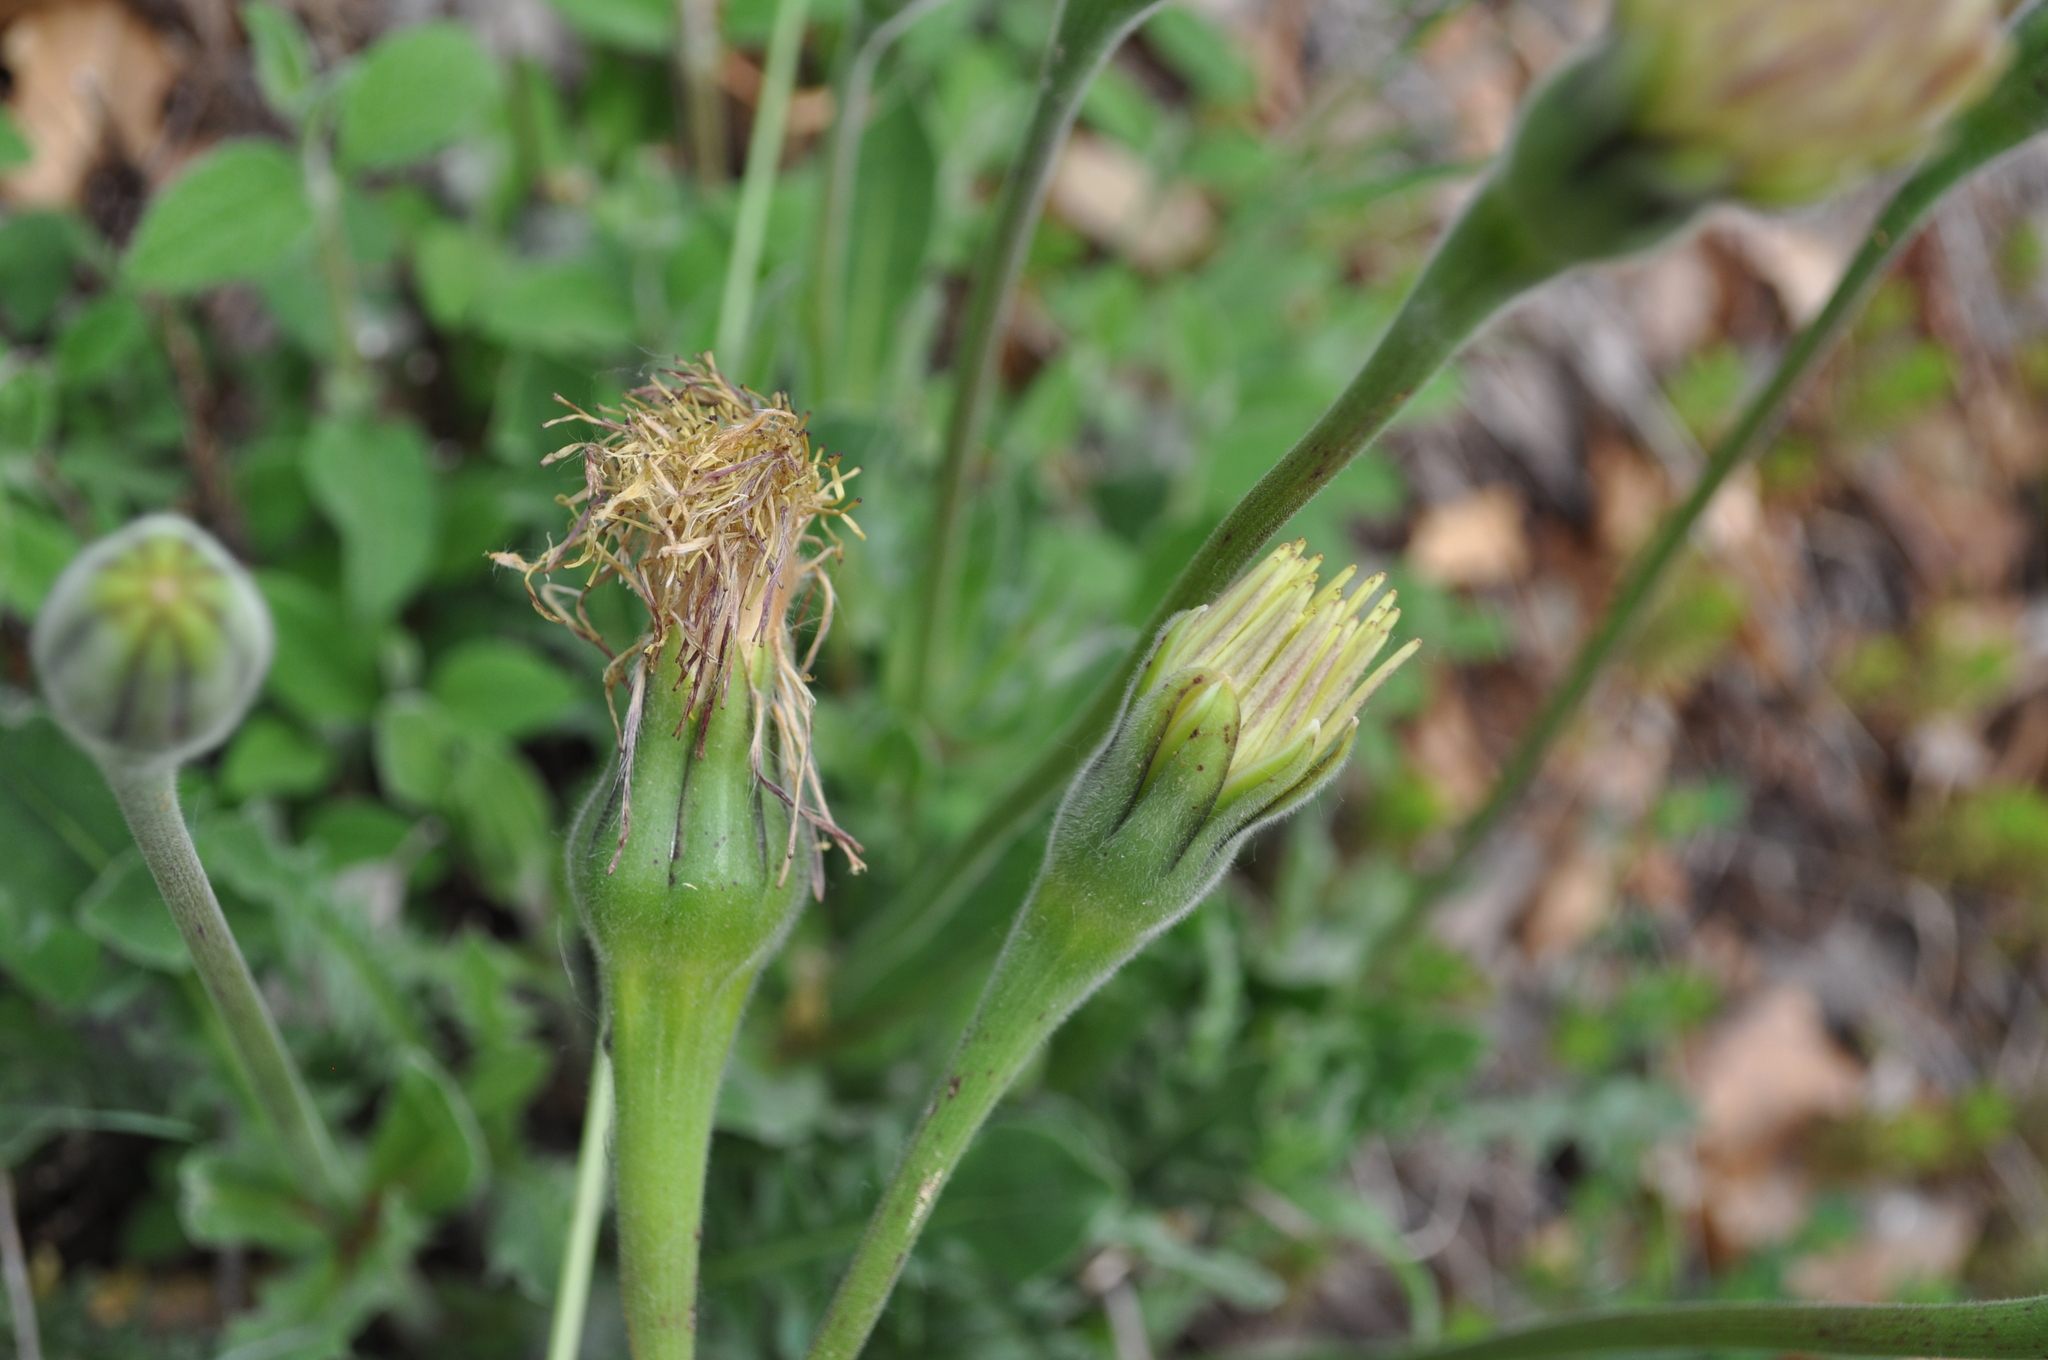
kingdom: Plantae
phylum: Tracheophyta
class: Magnoliopsida
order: Asterales
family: Asteraceae
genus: Urospermum
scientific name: Urospermum dalechampii
